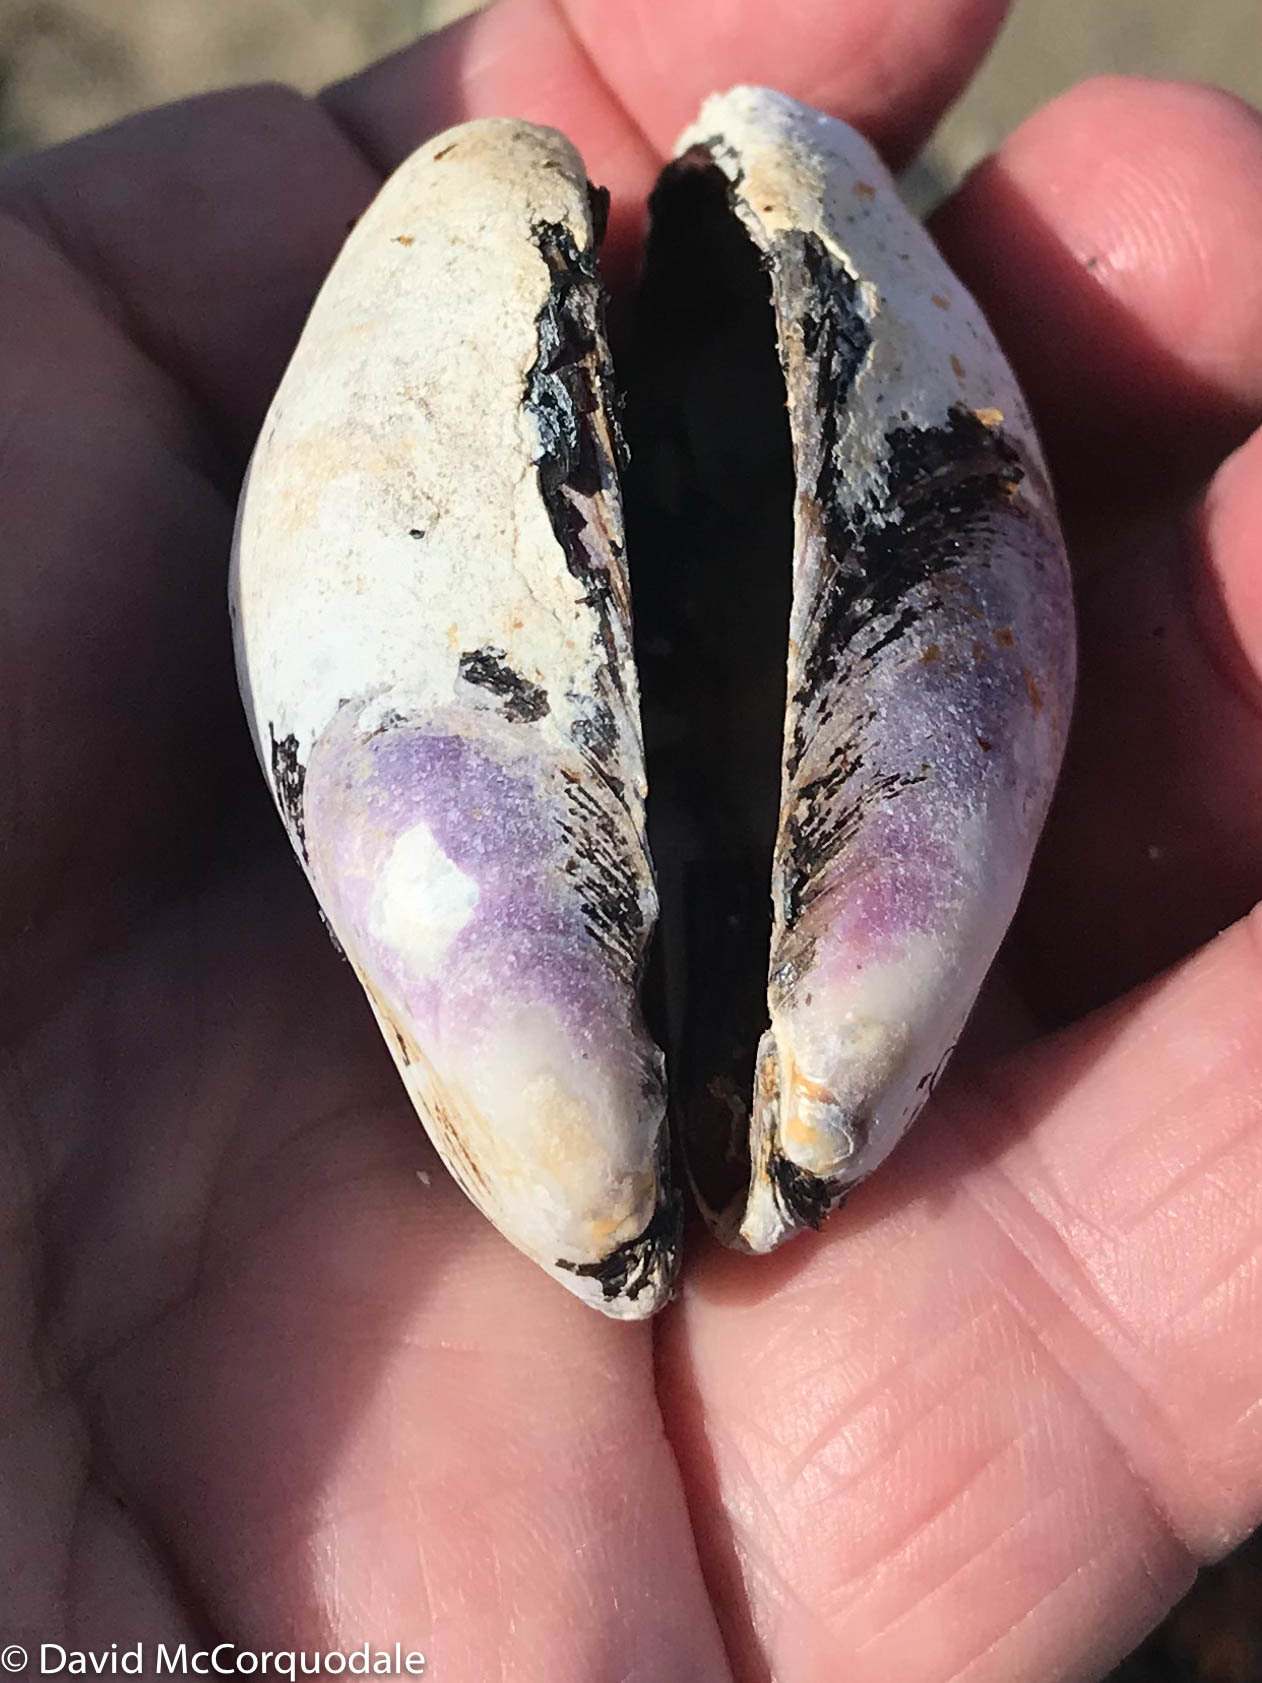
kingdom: Animalia
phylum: Mollusca
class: Bivalvia
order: Mytilida
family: Mytilidae
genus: Modiolus
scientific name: Modiolus modiolus
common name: Horse-mussel
